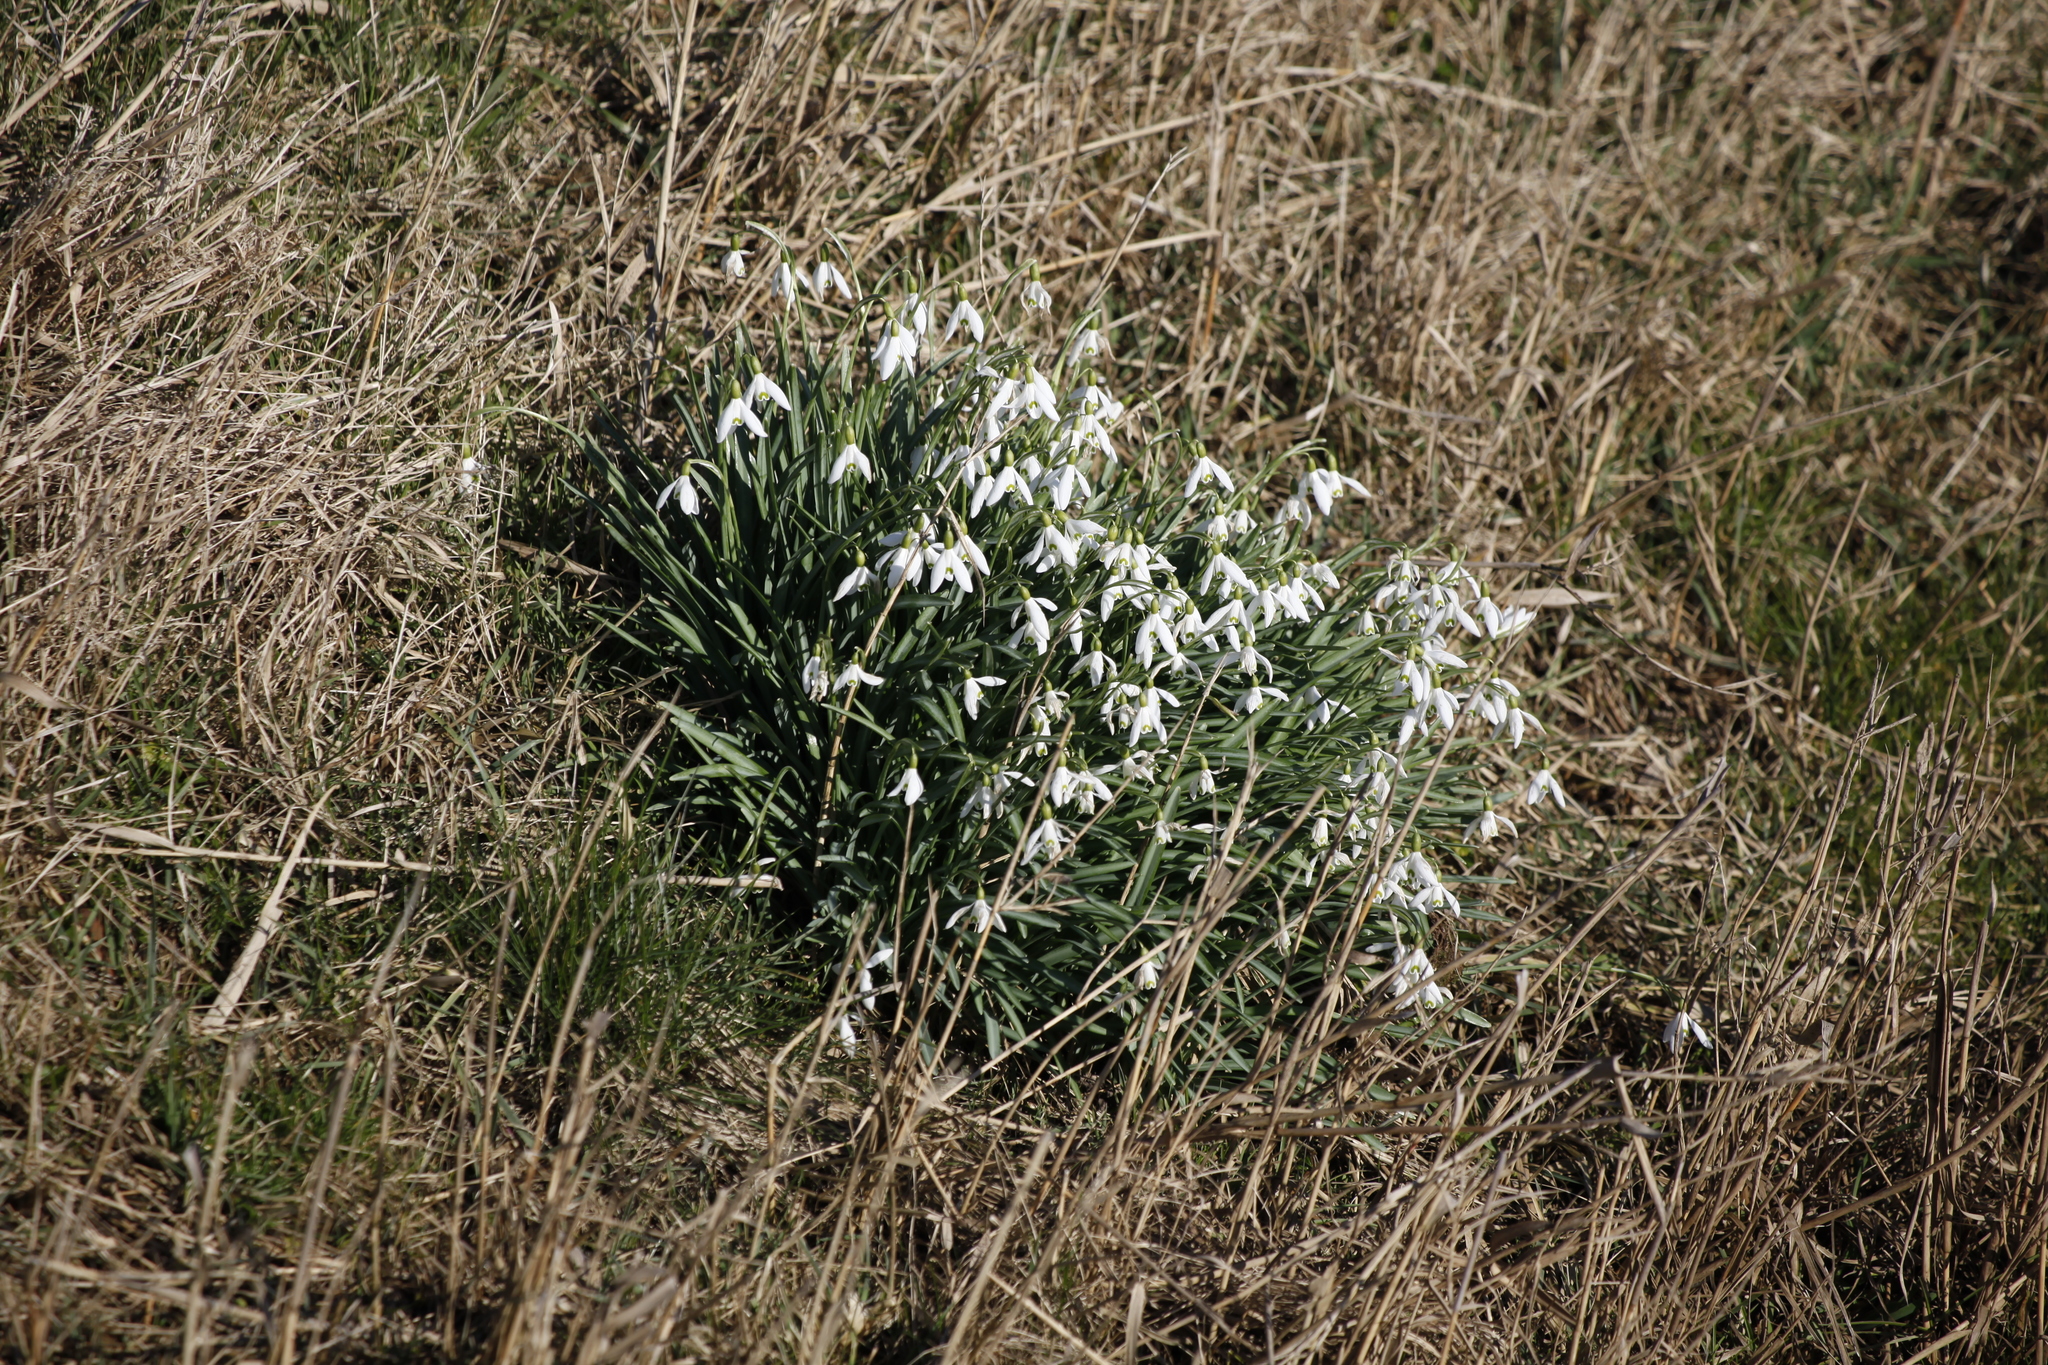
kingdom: Plantae
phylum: Tracheophyta
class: Liliopsida
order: Asparagales
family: Amaryllidaceae
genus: Galanthus
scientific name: Galanthus nivalis
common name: Snowdrop
